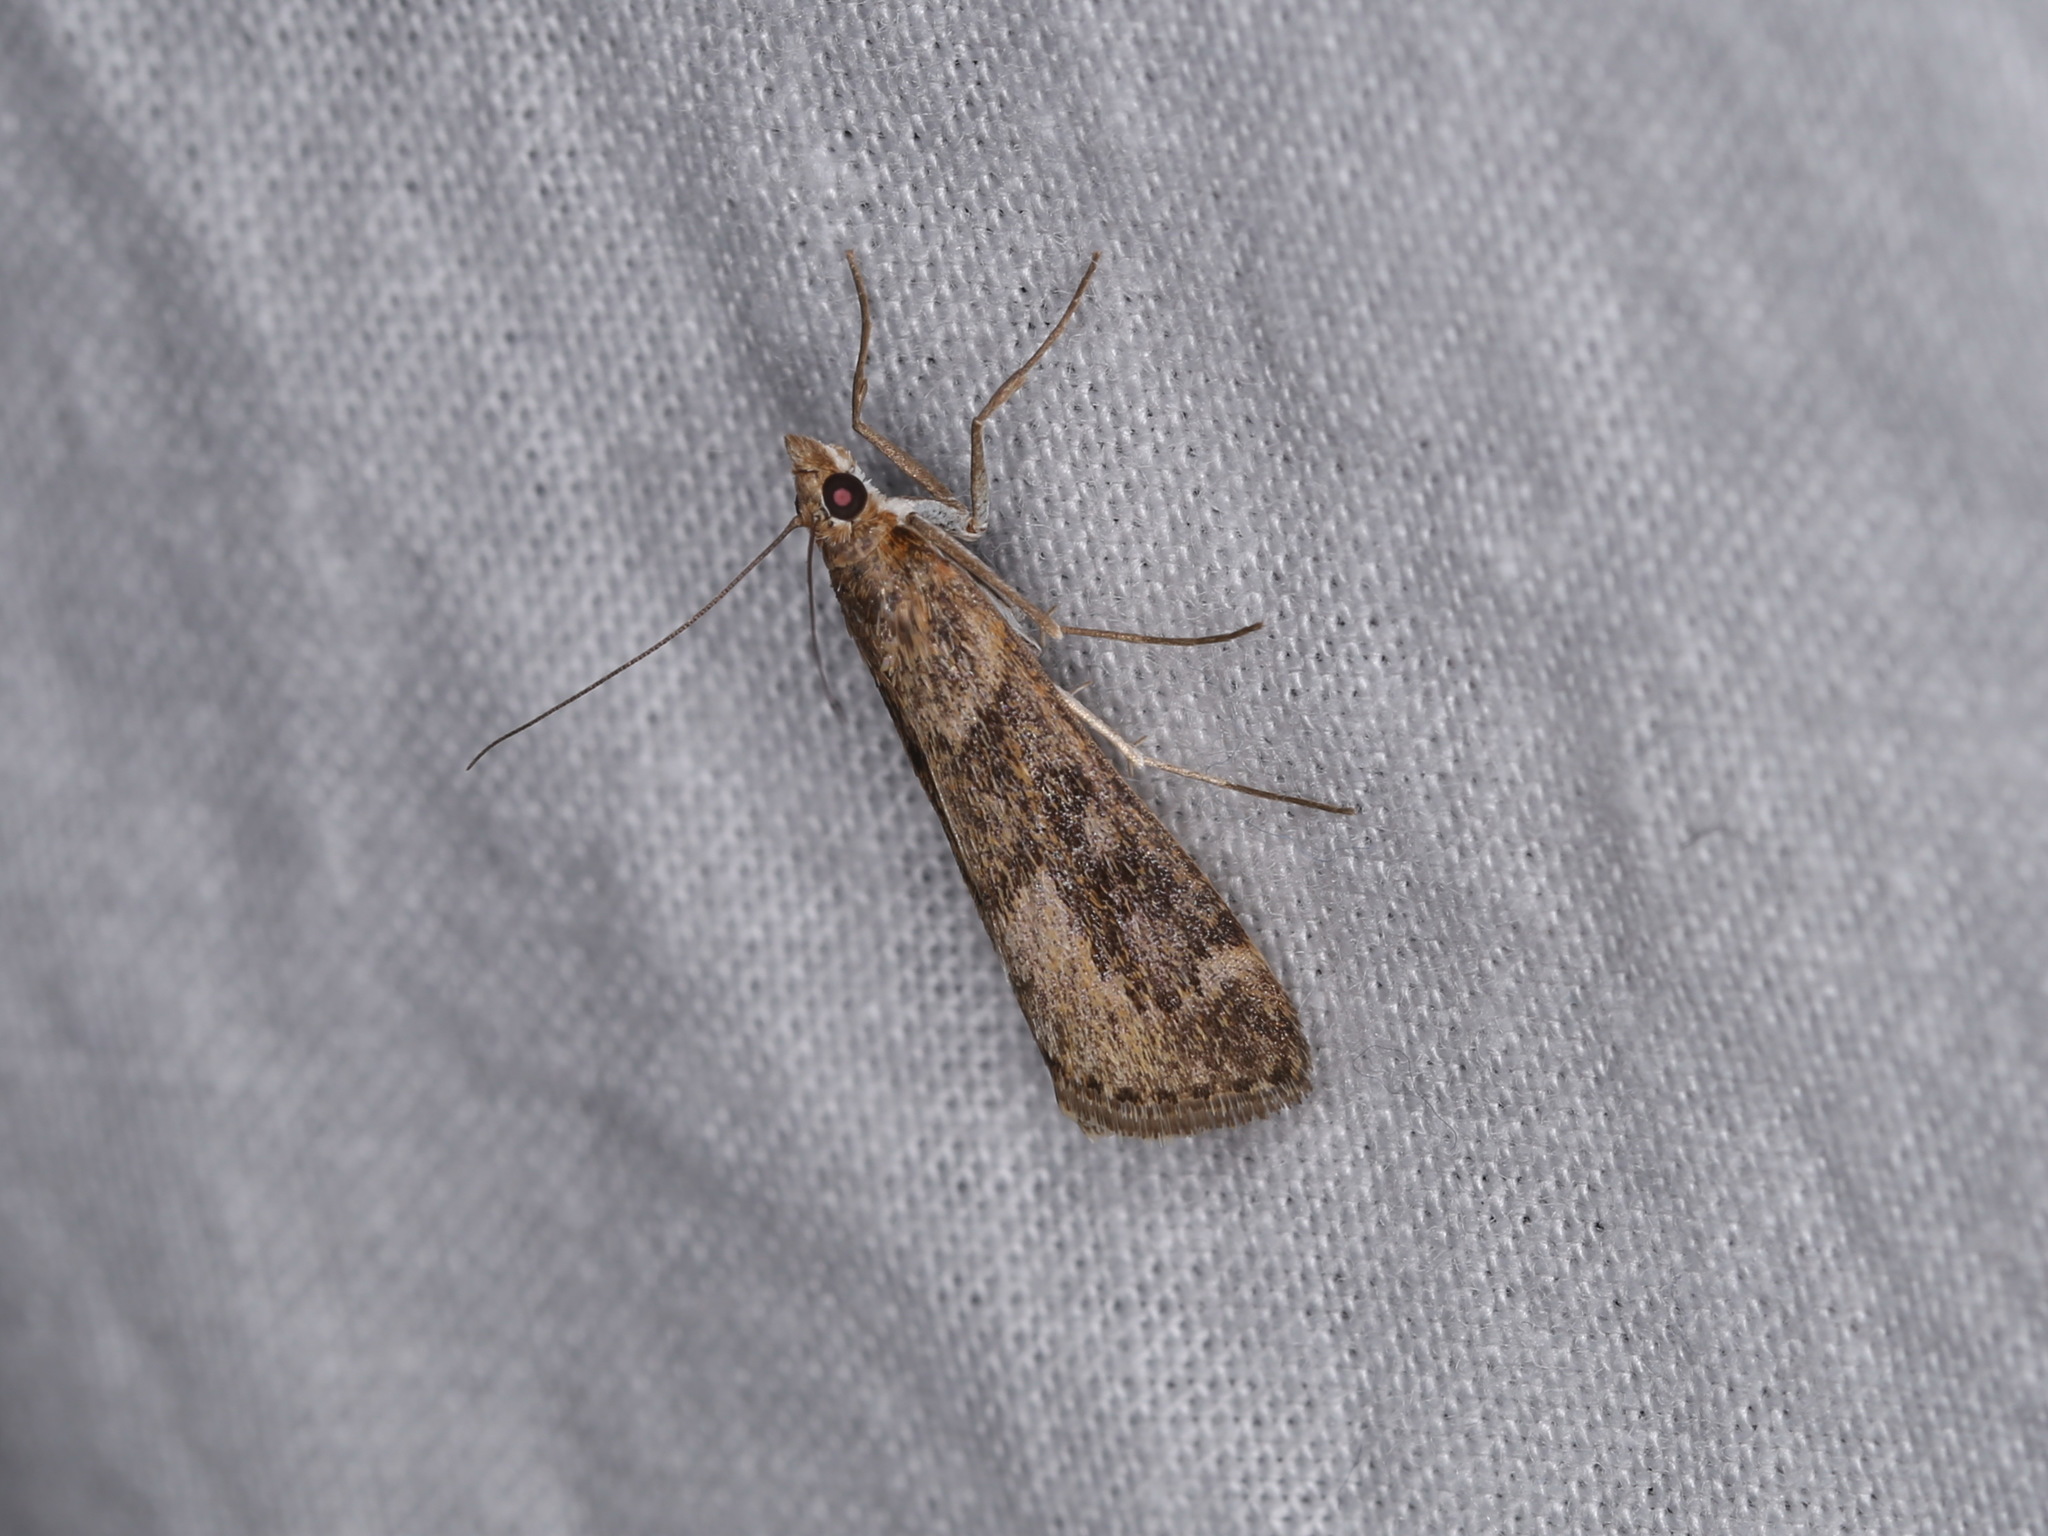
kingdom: Animalia
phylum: Arthropoda
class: Insecta
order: Lepidoptera
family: Crambidae
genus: Achyra
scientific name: Achyra affinitalis
